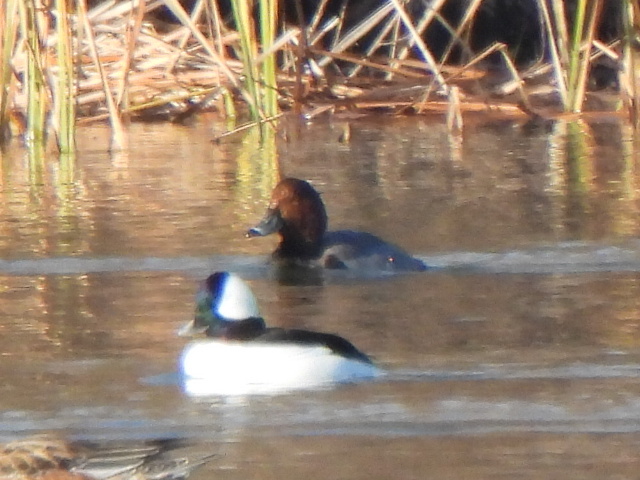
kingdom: Animalia
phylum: Chordata
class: Aves
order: Anseriformes
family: Anatidae
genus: Aythya
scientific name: Aythya americana
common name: Redhead
